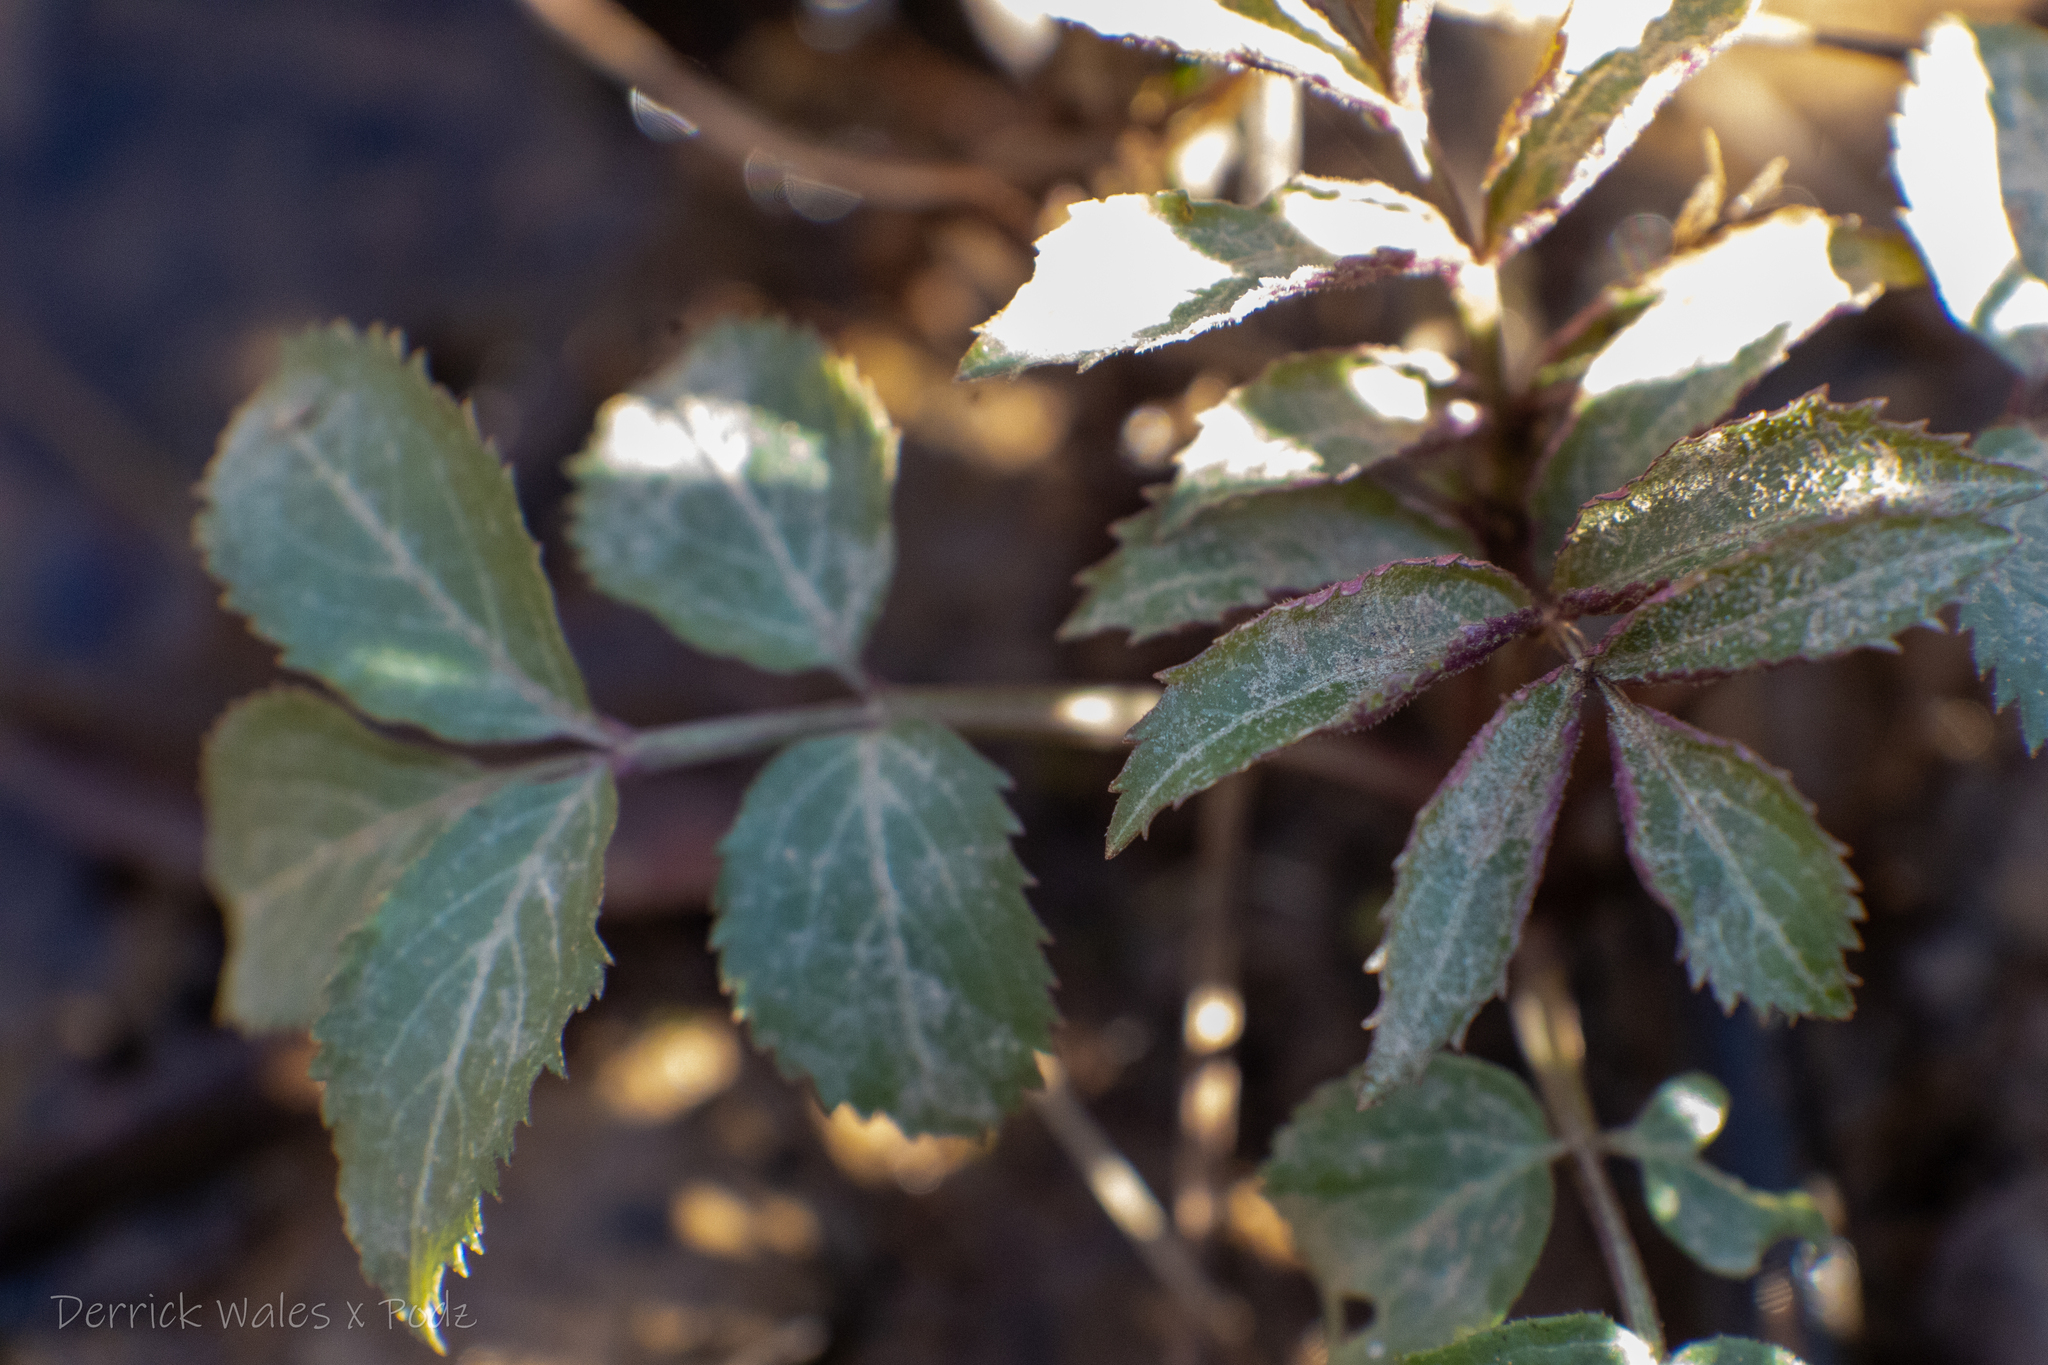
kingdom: Plantae
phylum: Tracheophyta
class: Magnoliopsida
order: Dipsacales
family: Viburnaceae
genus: Sambucus
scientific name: Sambucus canadensis
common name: American elder
